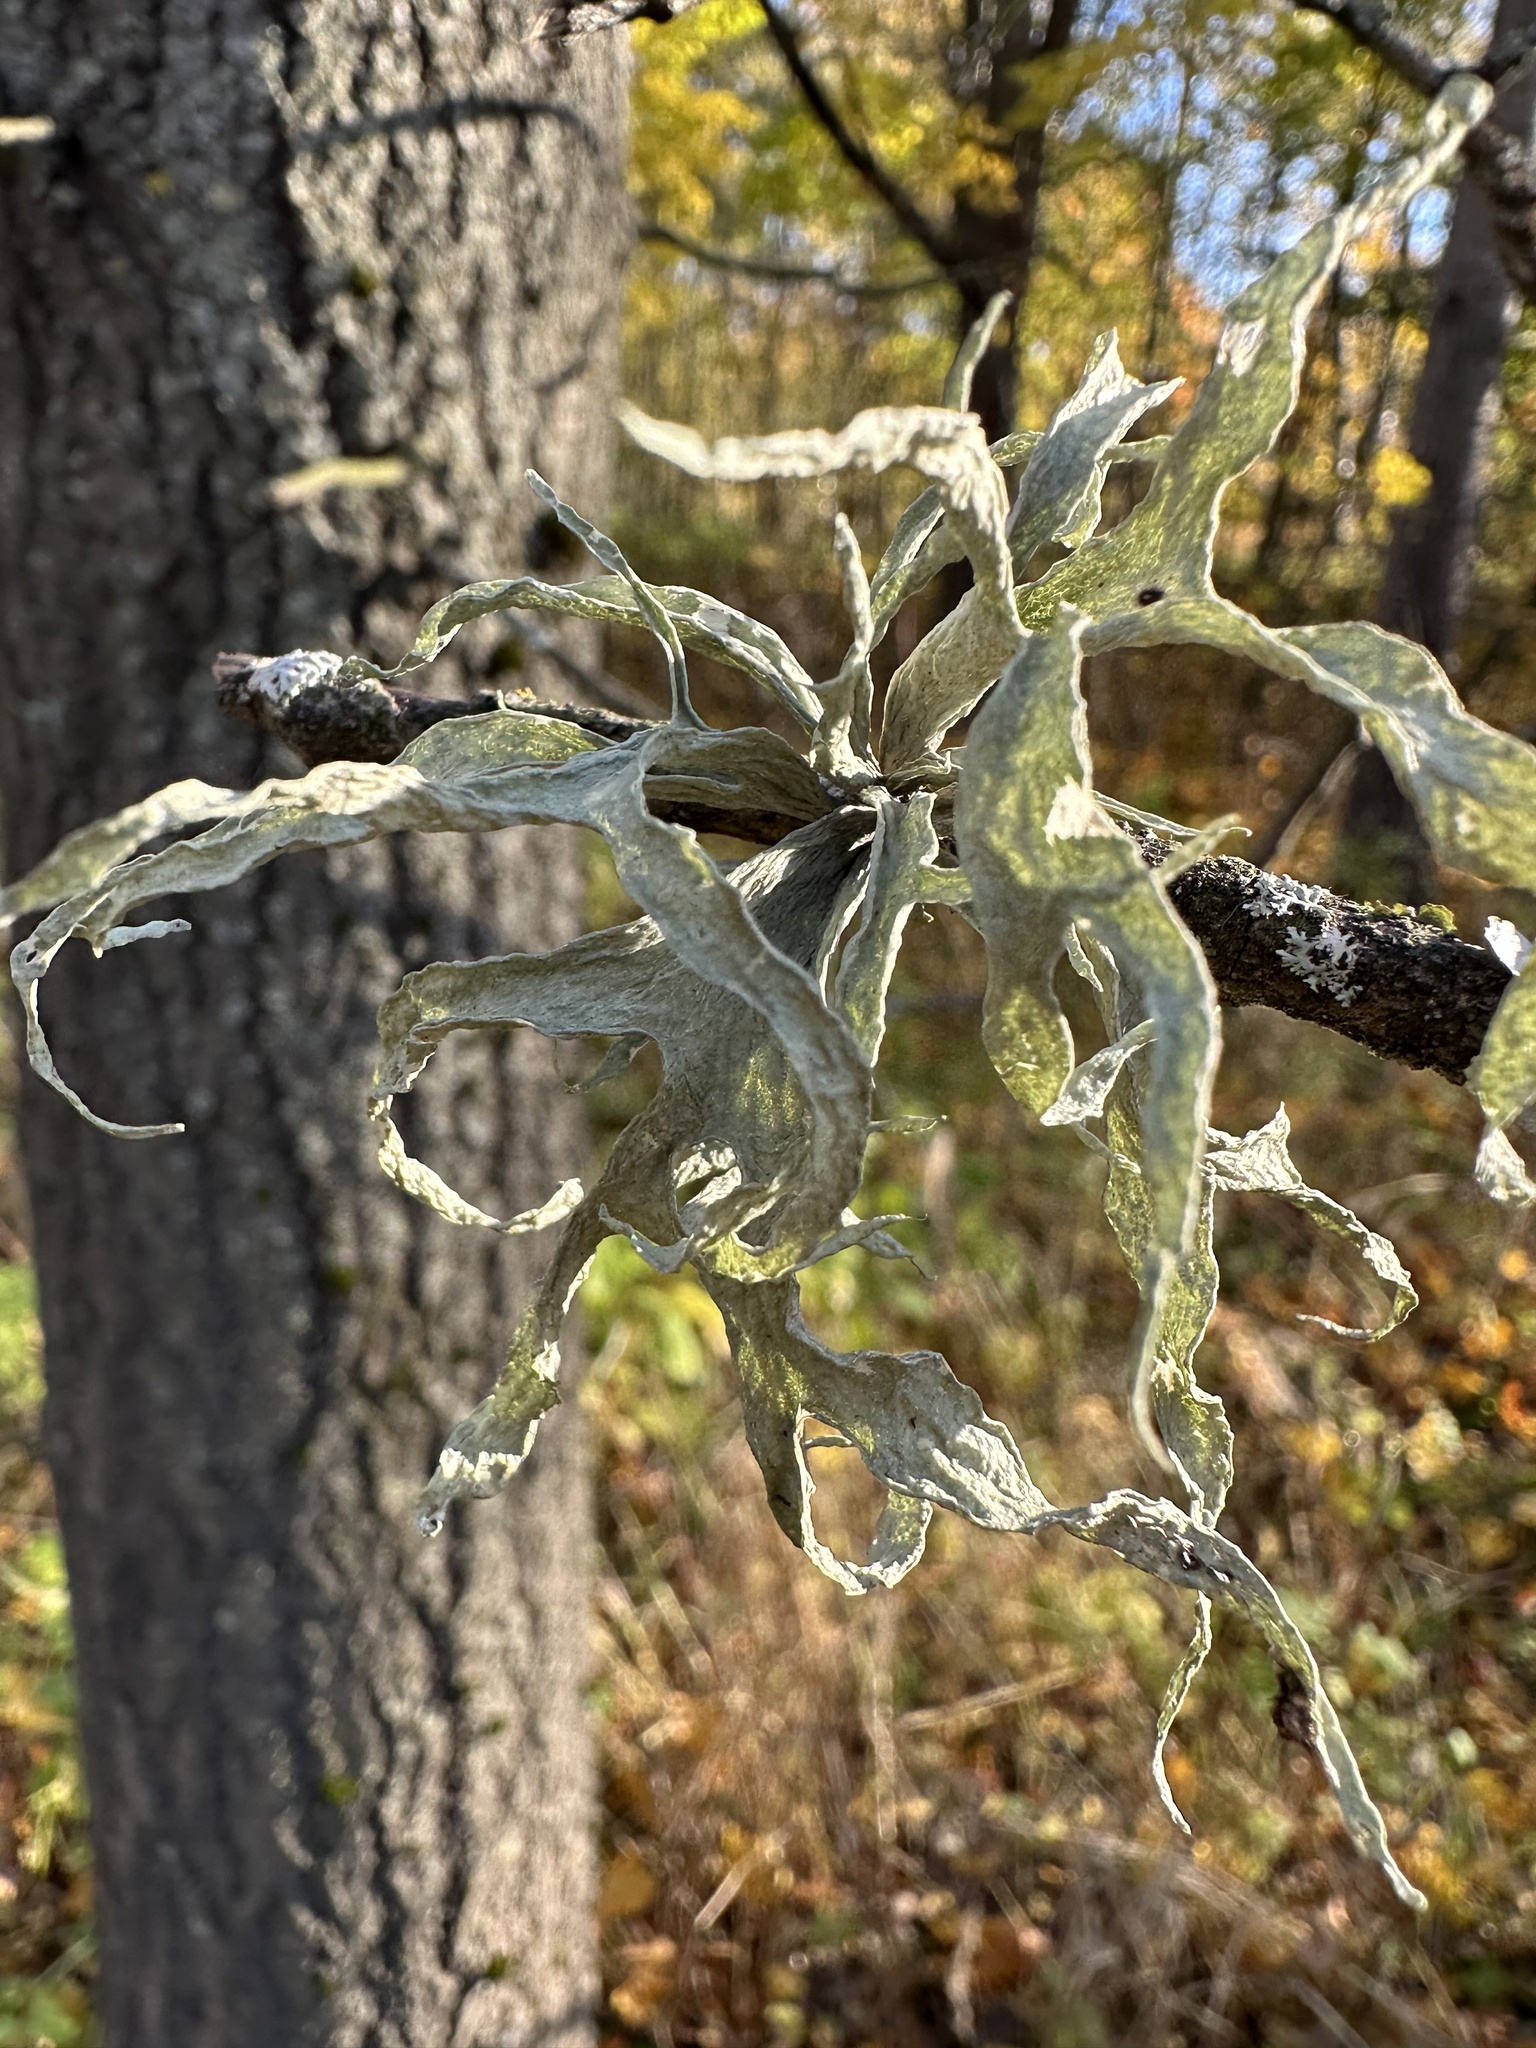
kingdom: Fungi
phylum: Ascomycota
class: Lecanoromycetes
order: Lecanorales
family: Ramalinaceae
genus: Ramalina
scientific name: Ramalina fraxinea
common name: Cartilage lichen
